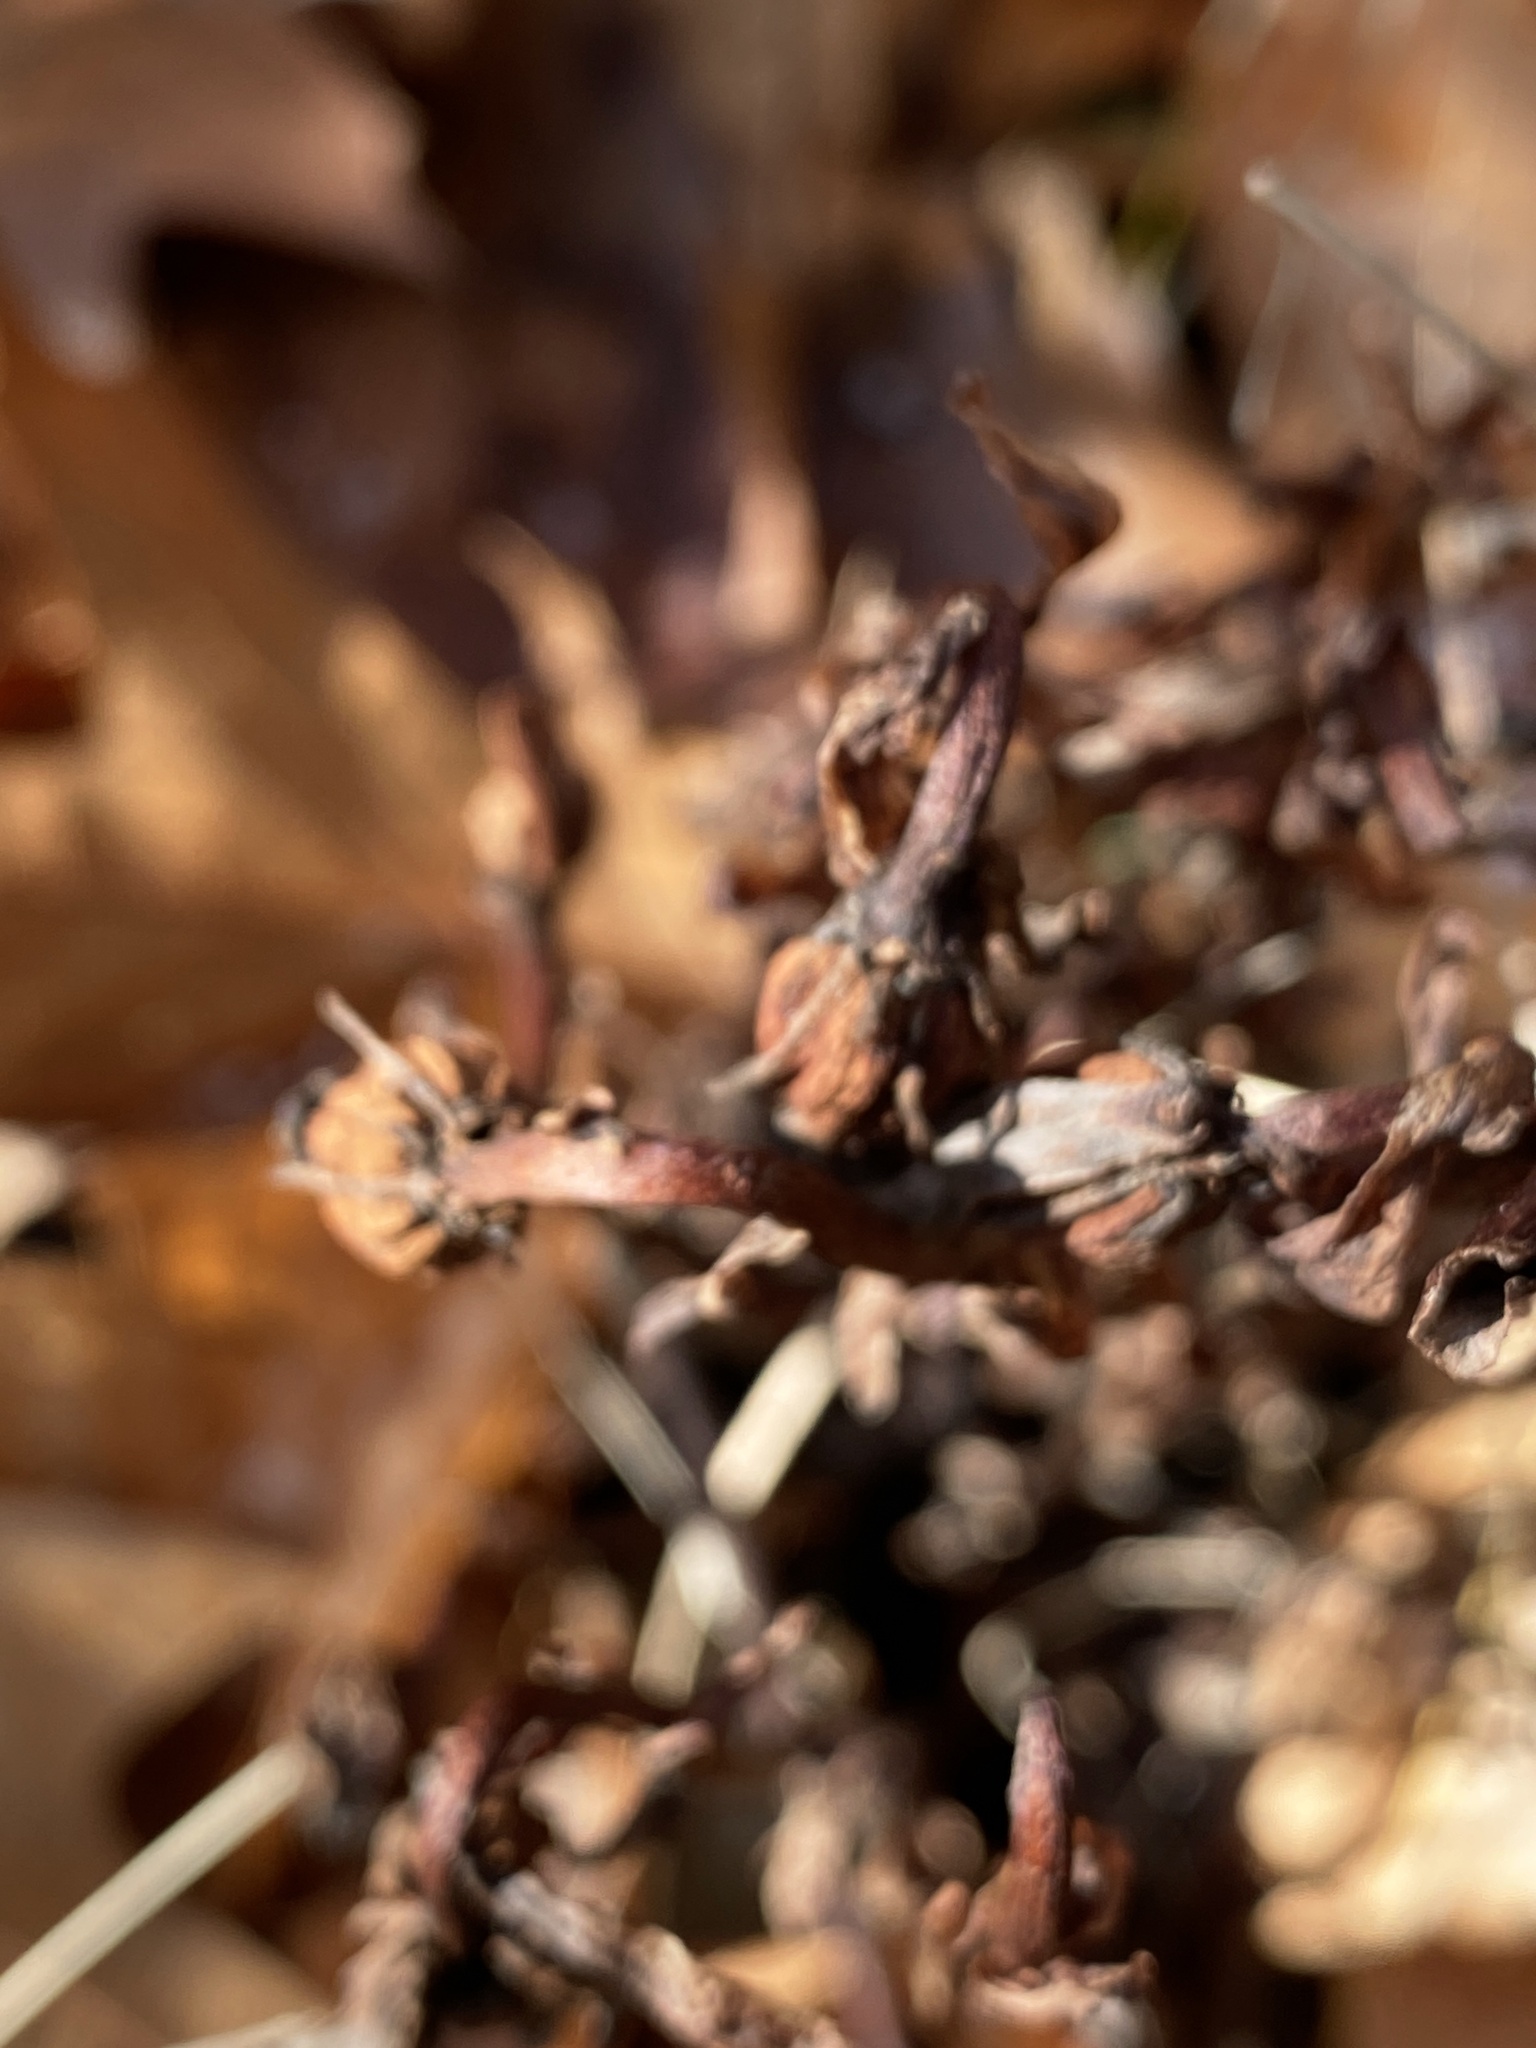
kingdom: Plantae
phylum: Tracheophyta
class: Magnoliopsida
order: Ericales
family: Ericaceae
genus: Monotropa
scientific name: Monotropa uniflora
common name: Convulsion root
